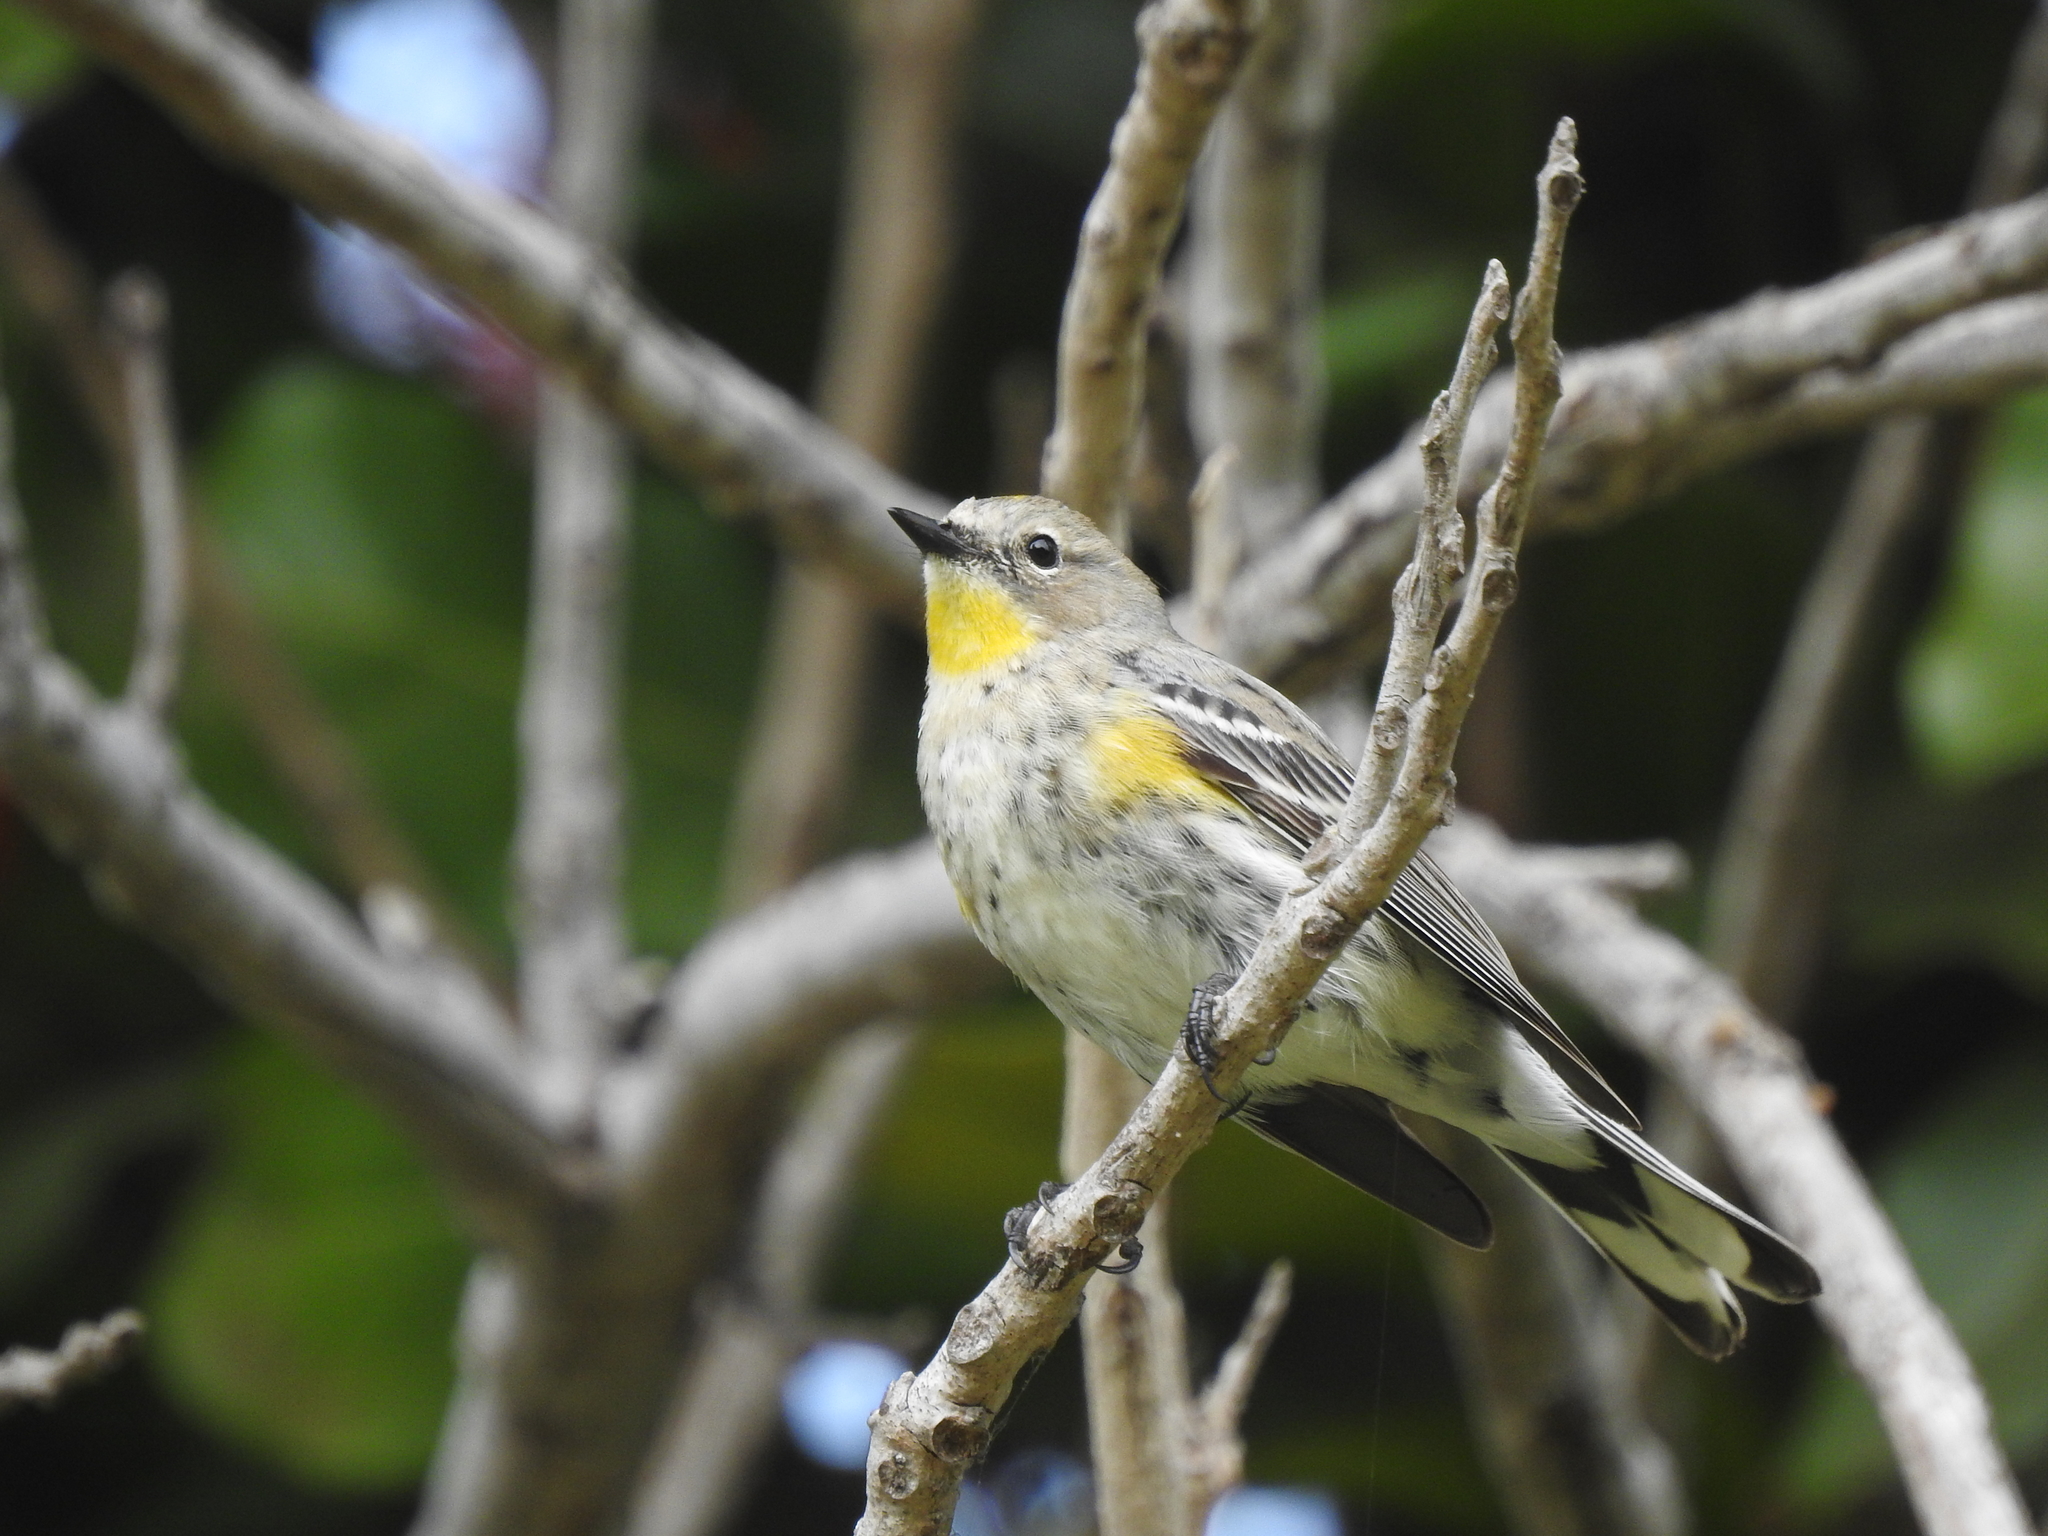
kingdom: Animalia
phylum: Chordata
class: Aves
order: Passeriformes
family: Parulidae
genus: Setophaga
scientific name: Setophaga coronata
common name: Myrtle warbler
